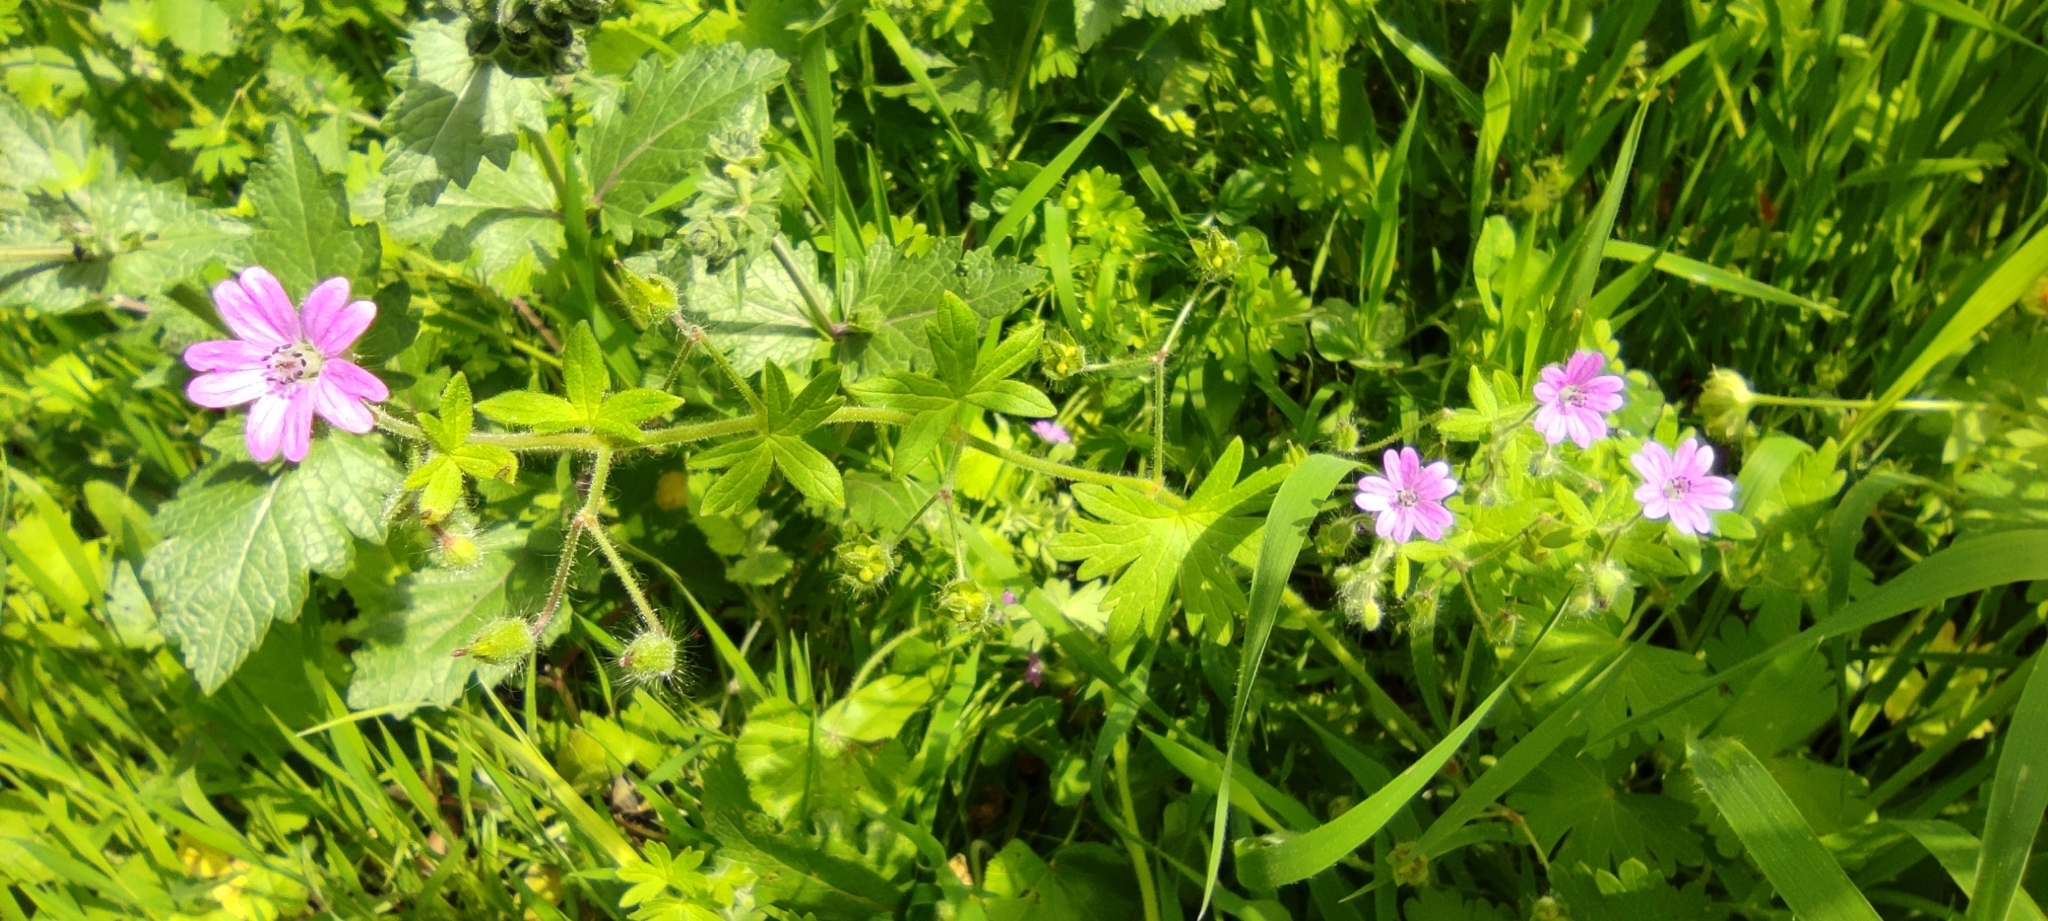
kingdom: Plantae
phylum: Tracheophyta
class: Magnoliopsida
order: Geraniales
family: Geraniaceae
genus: Geranium
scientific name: Geranium molle
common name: Dove's-foot crane's-bill
